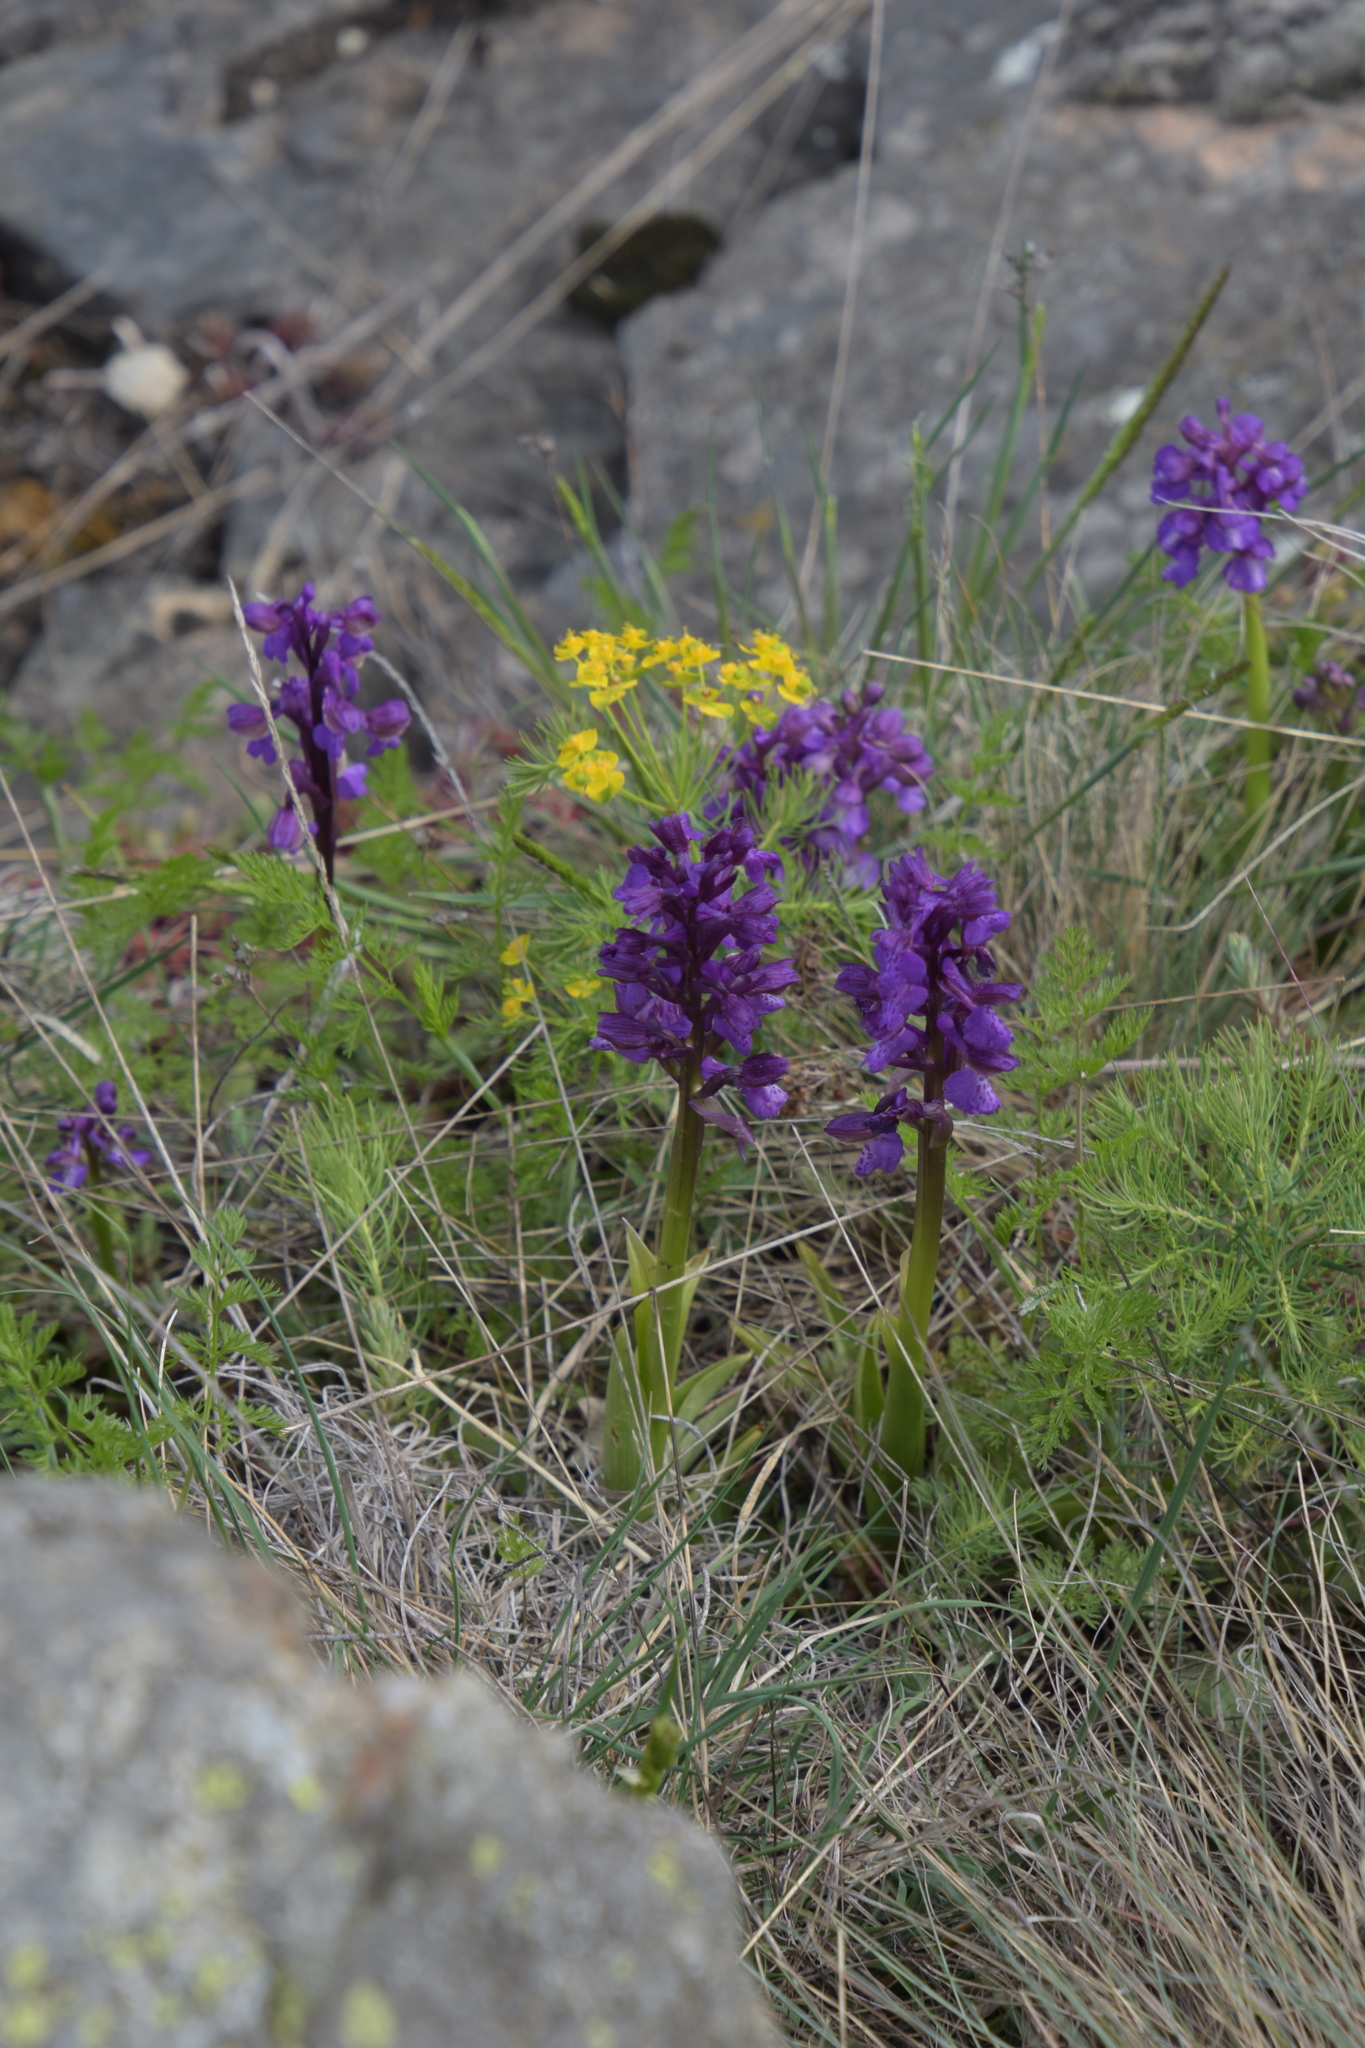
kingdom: Plantae
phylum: Tracheophyta
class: Liliopsida
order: Asparagales
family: Orchidaceae
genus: Anacamptis
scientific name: Anacamptis morio
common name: Green-winged orchid
